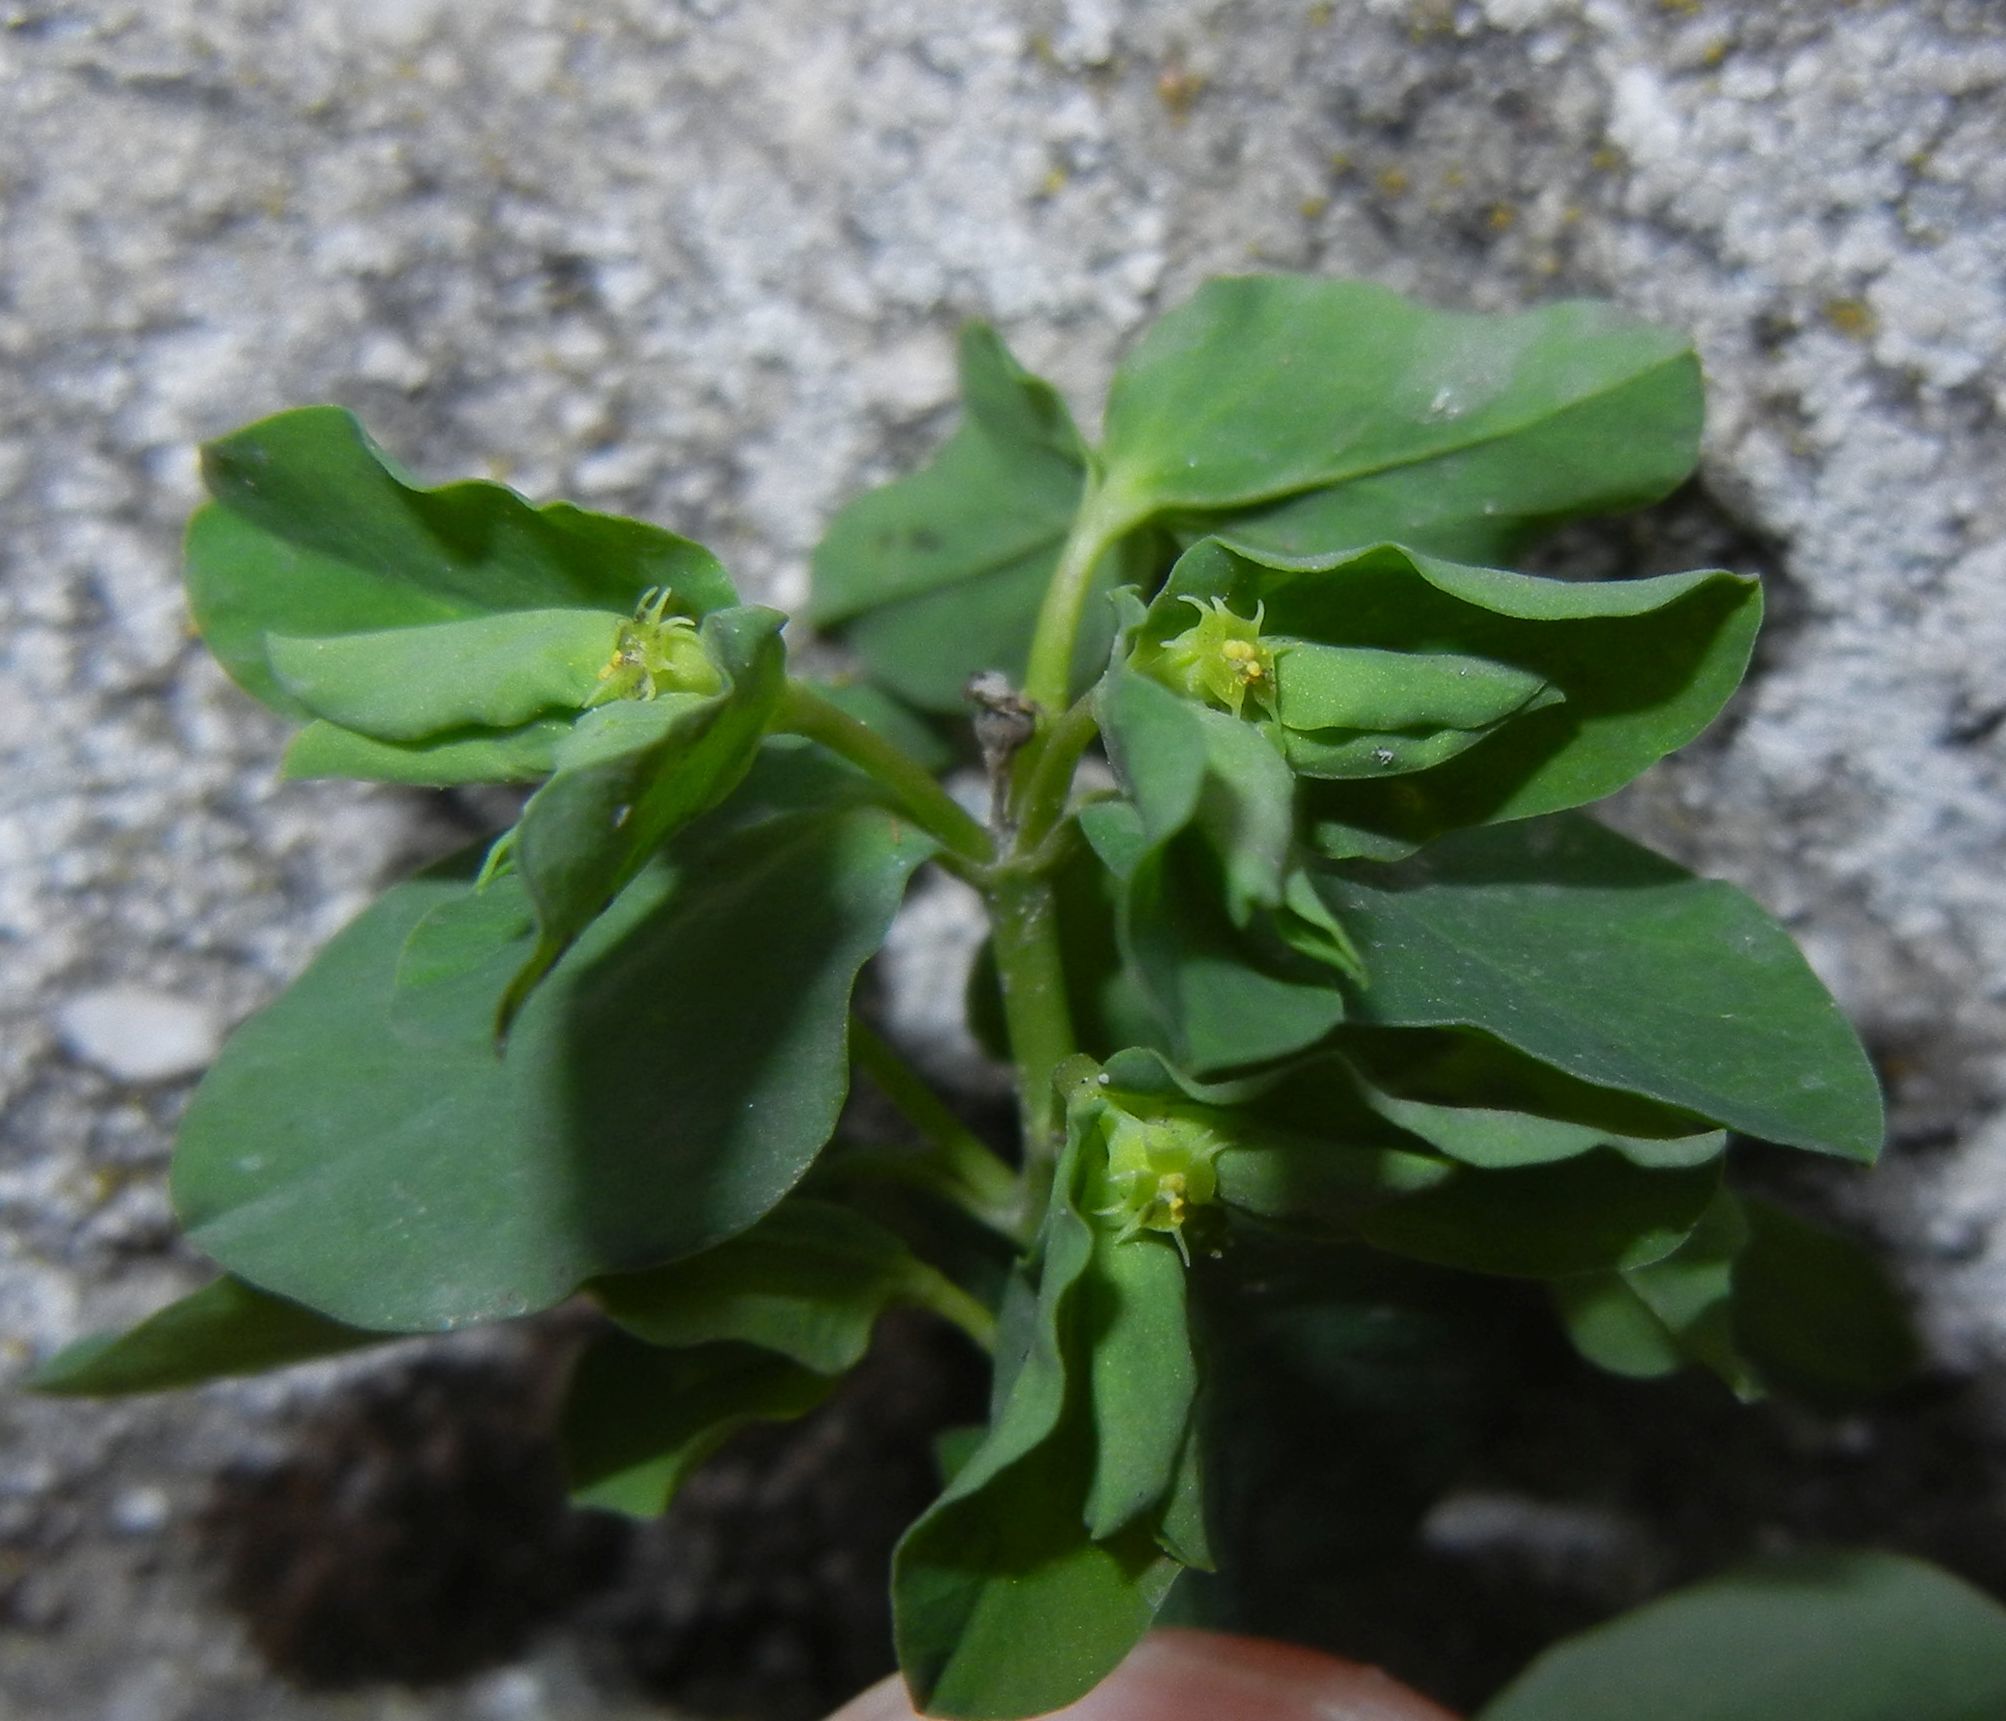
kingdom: Plantae
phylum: Tracheophyta
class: Magnoliopsida
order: Malpighiales
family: Euphorbiaceae
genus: Euphorbia
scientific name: Euphorbia peplus
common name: Petty spurge
